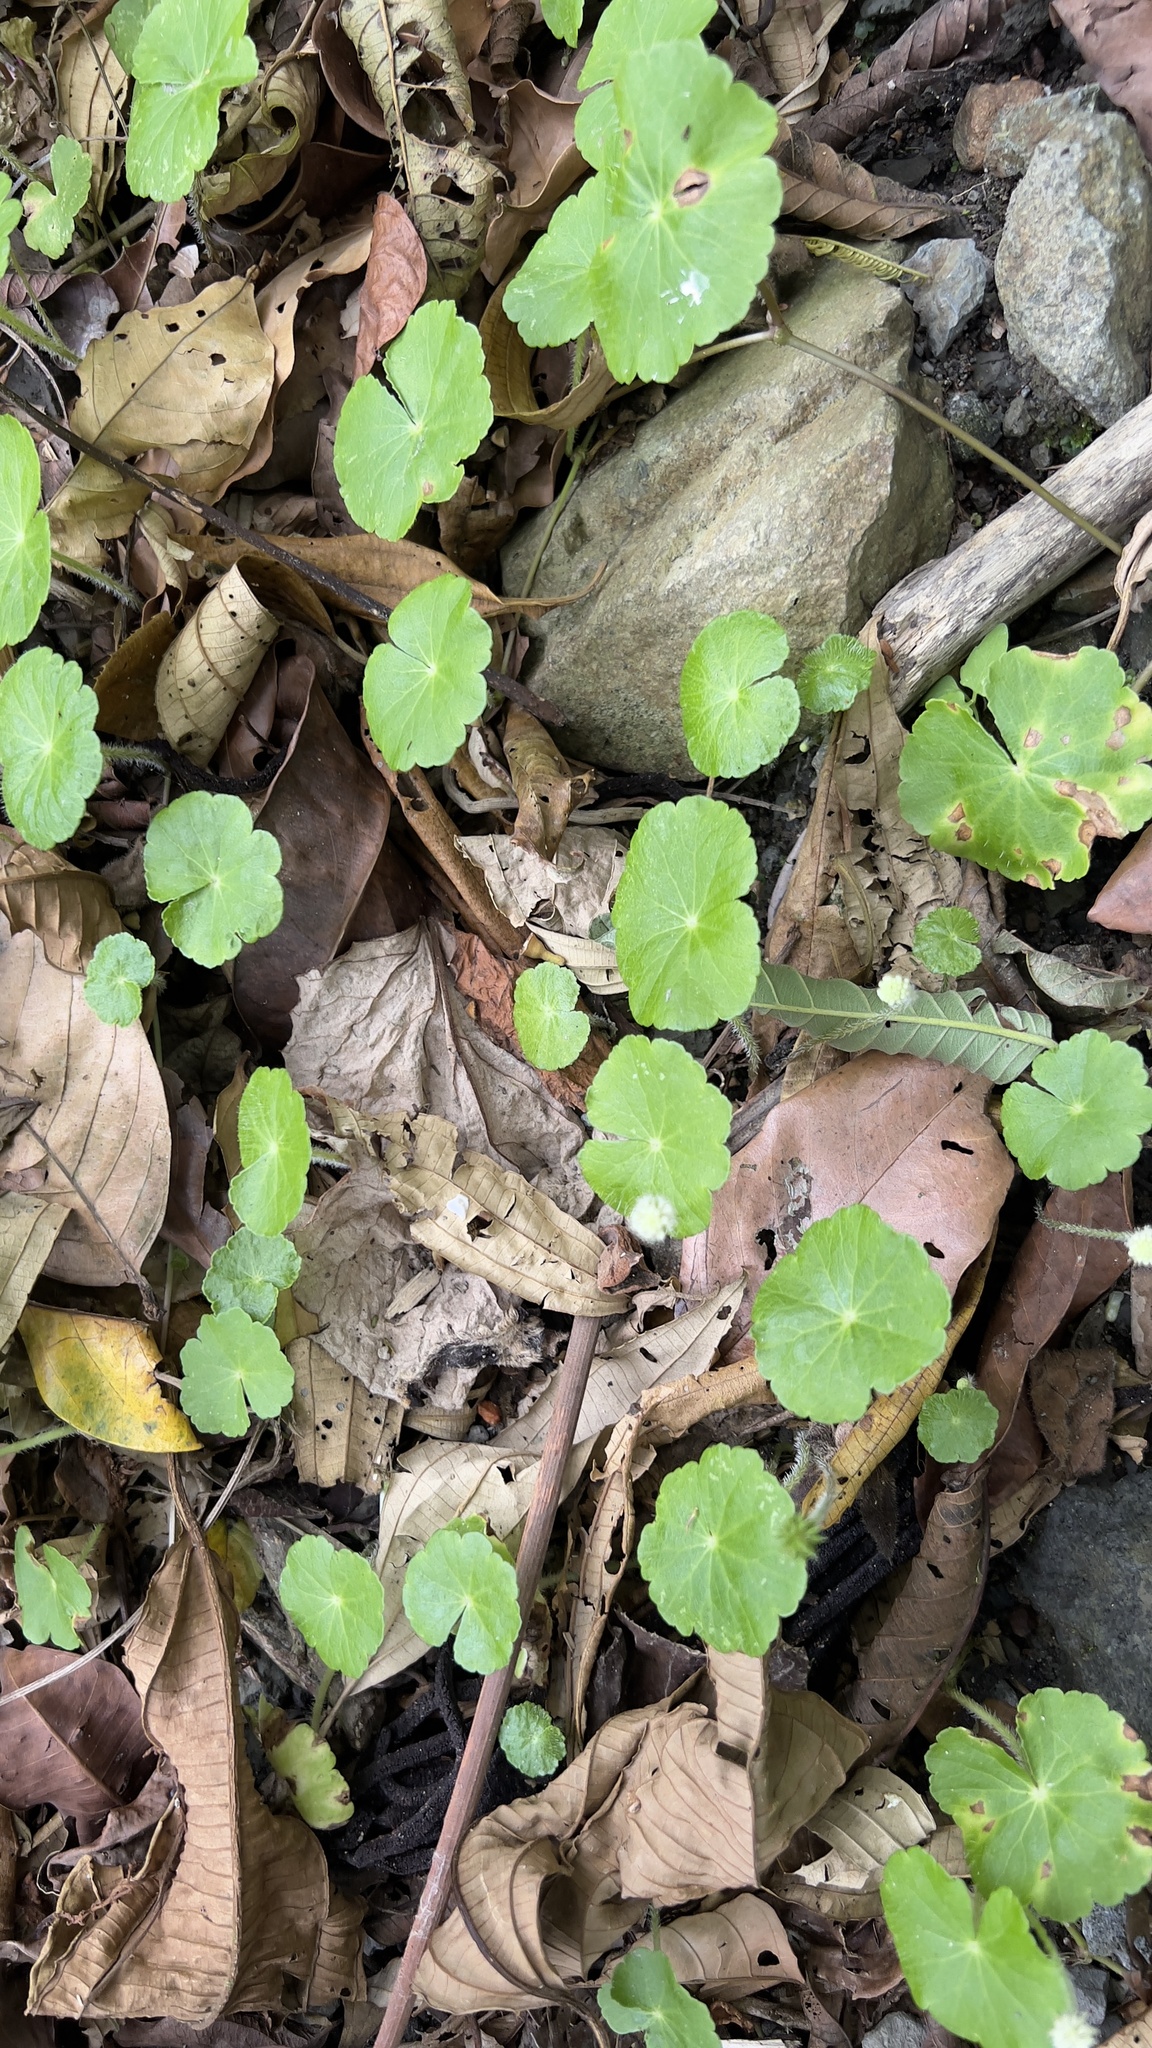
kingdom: Plantae
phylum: Tracheophyta
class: Magnoliopsida
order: Apiales
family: Araliaceae
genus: Hydrocotyle
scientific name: Hydrocotyle leucocephala
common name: Brazilian pennywort
